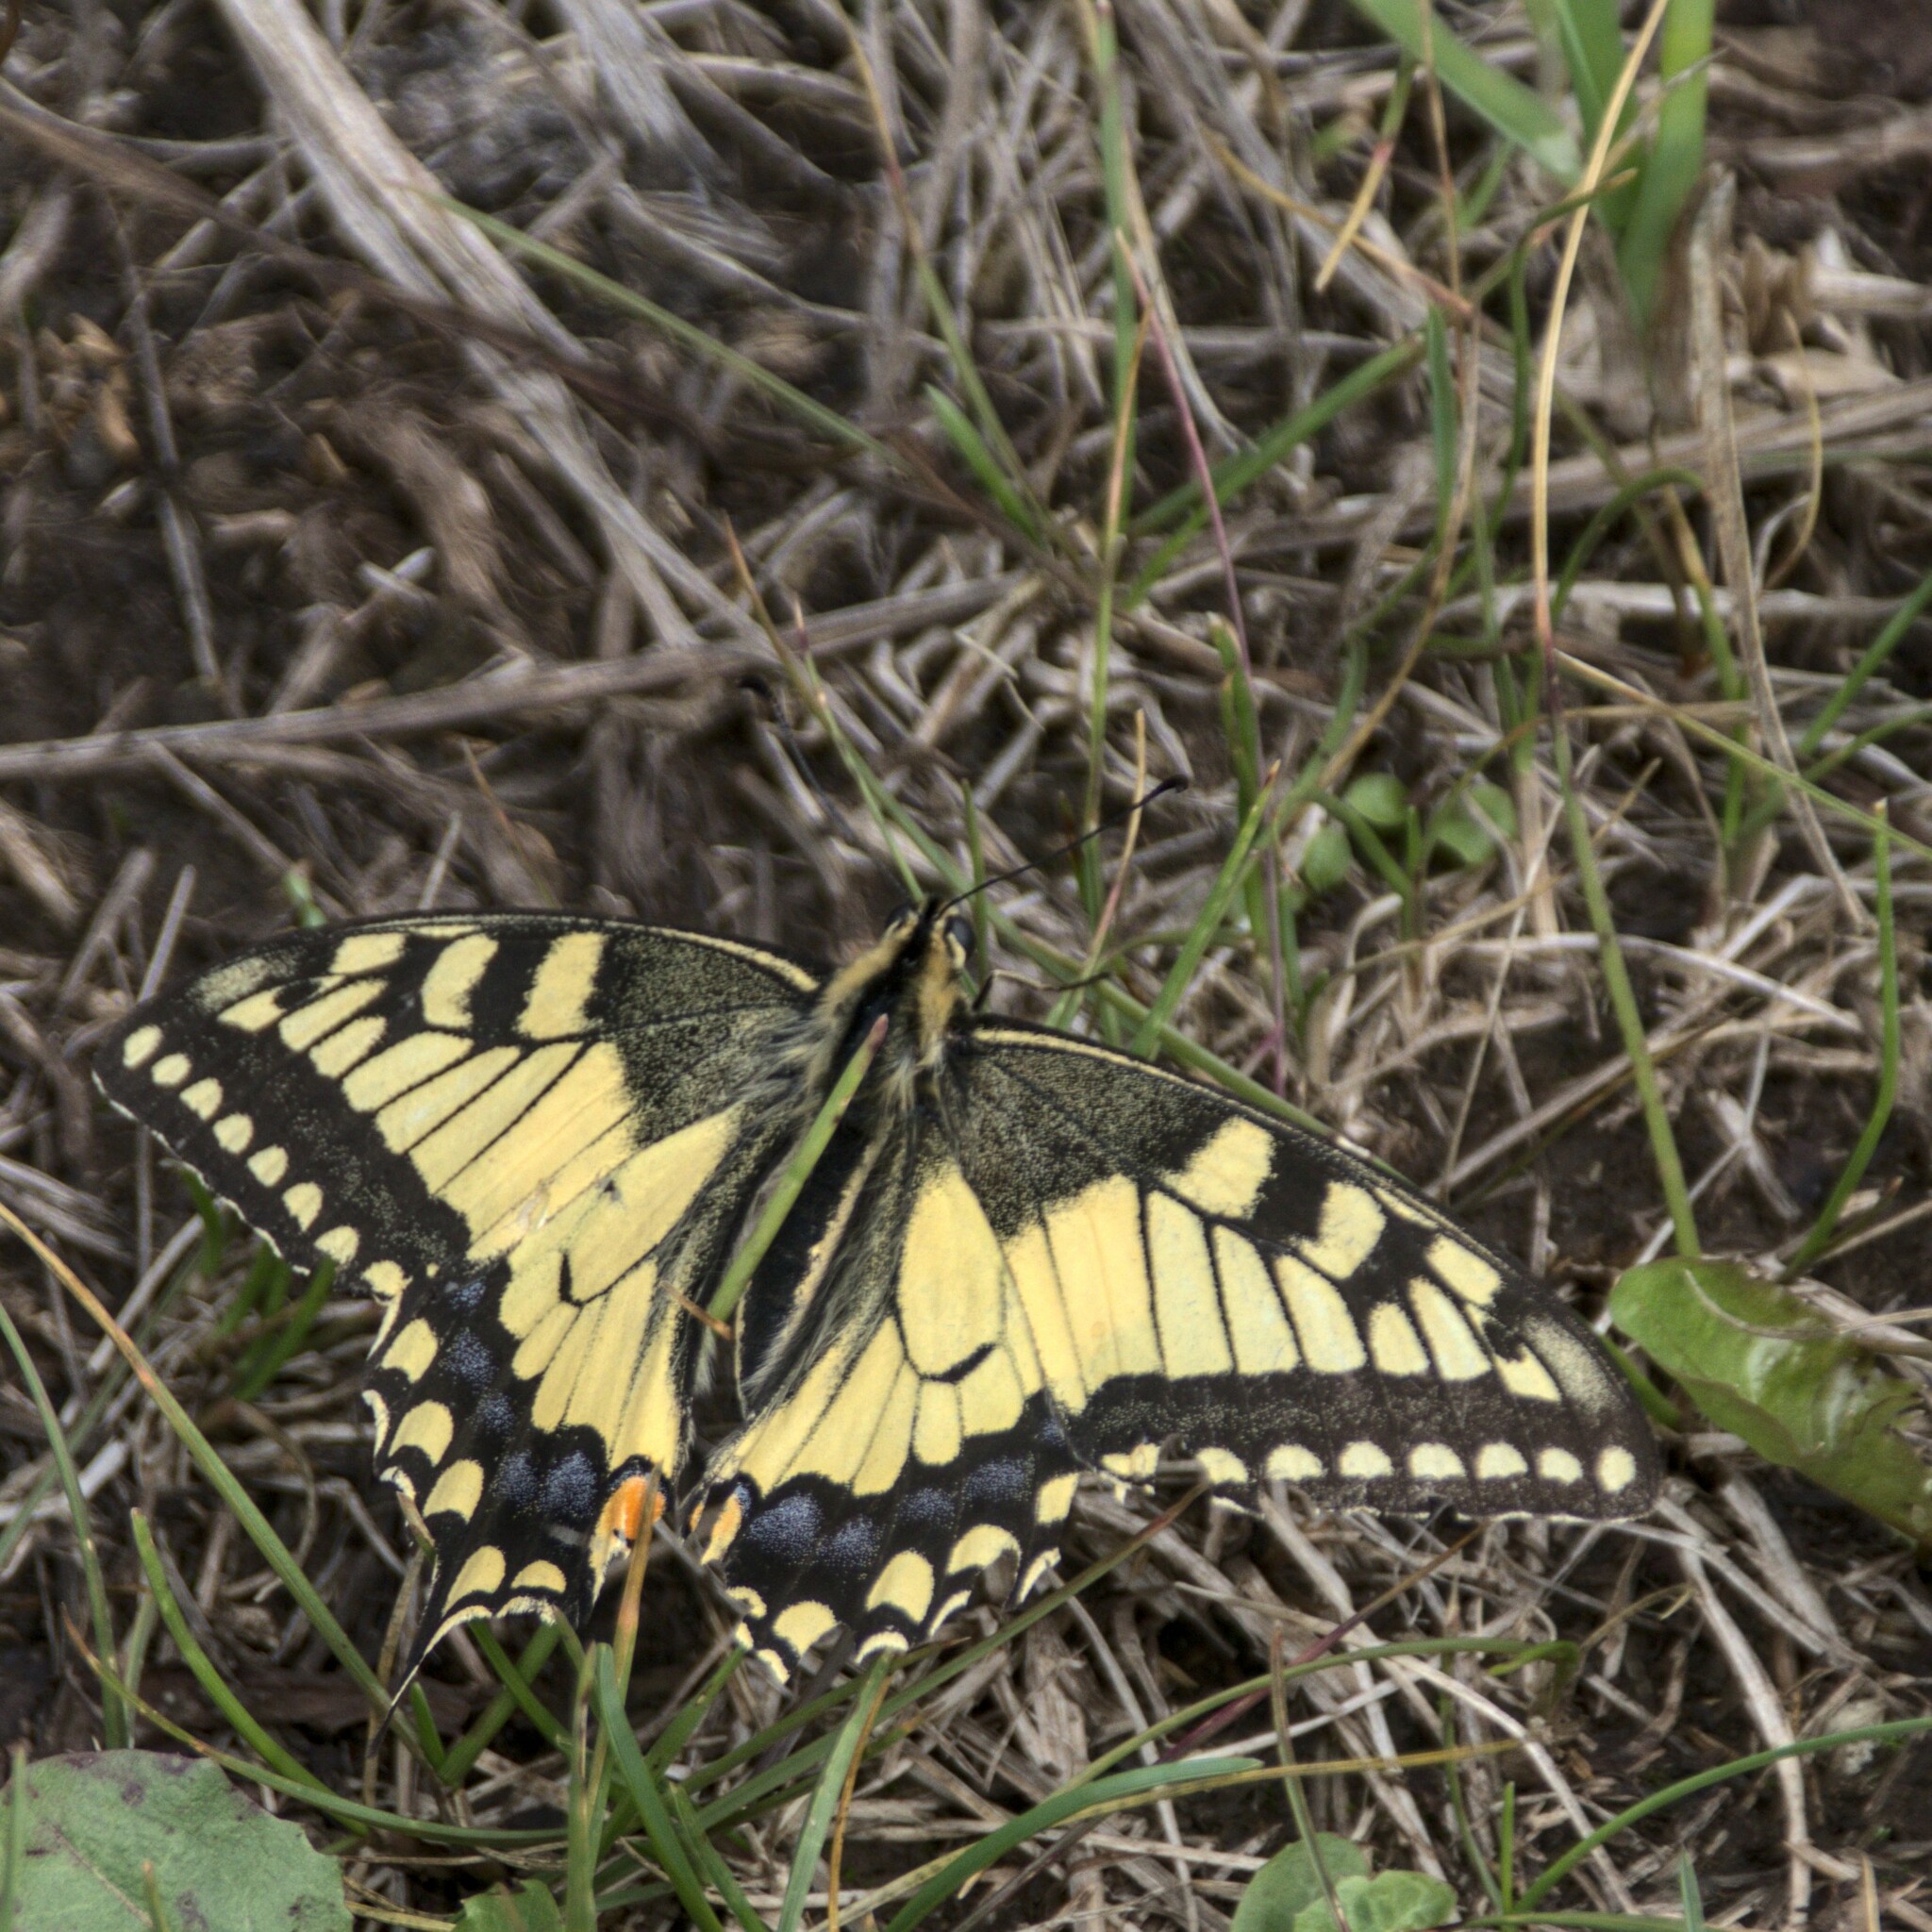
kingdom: Animalia
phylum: Arthropoda
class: Insecta
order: Lepidoptera
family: Papilionidae
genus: Papilio
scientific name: Papilio machaon
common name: Swallowtail
